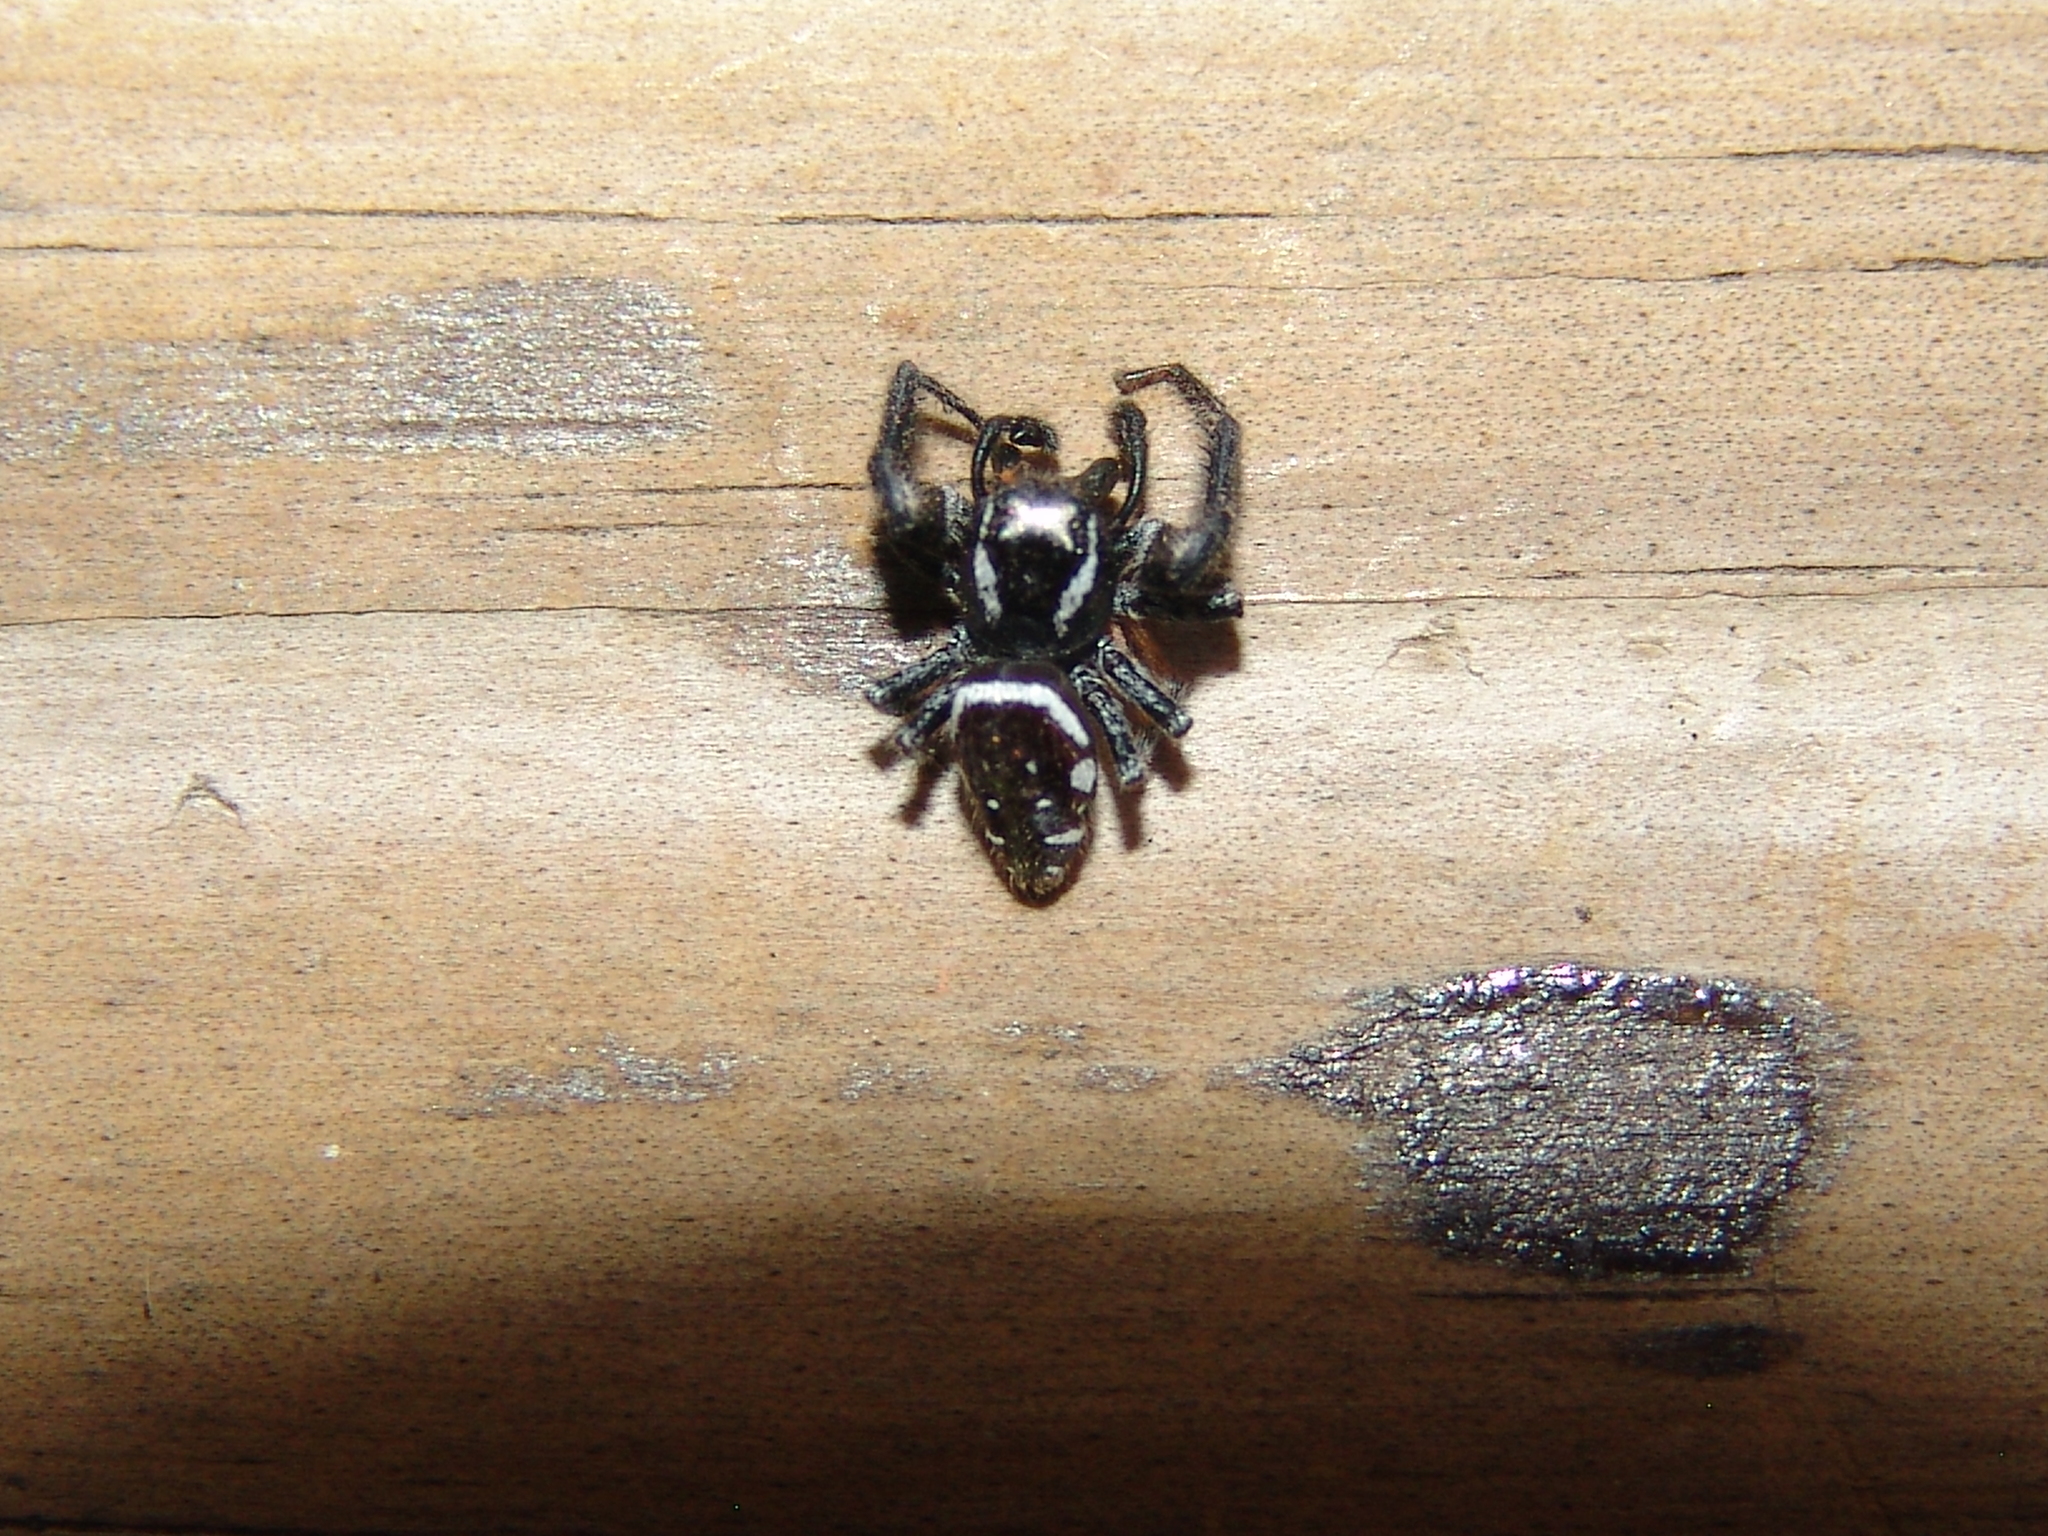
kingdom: Animalia
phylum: Arthropoda
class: Arachnida
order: Araneae
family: Salticidae
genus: Paraphidippus
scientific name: Paraphidippus aurantius
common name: Jumping spiders
